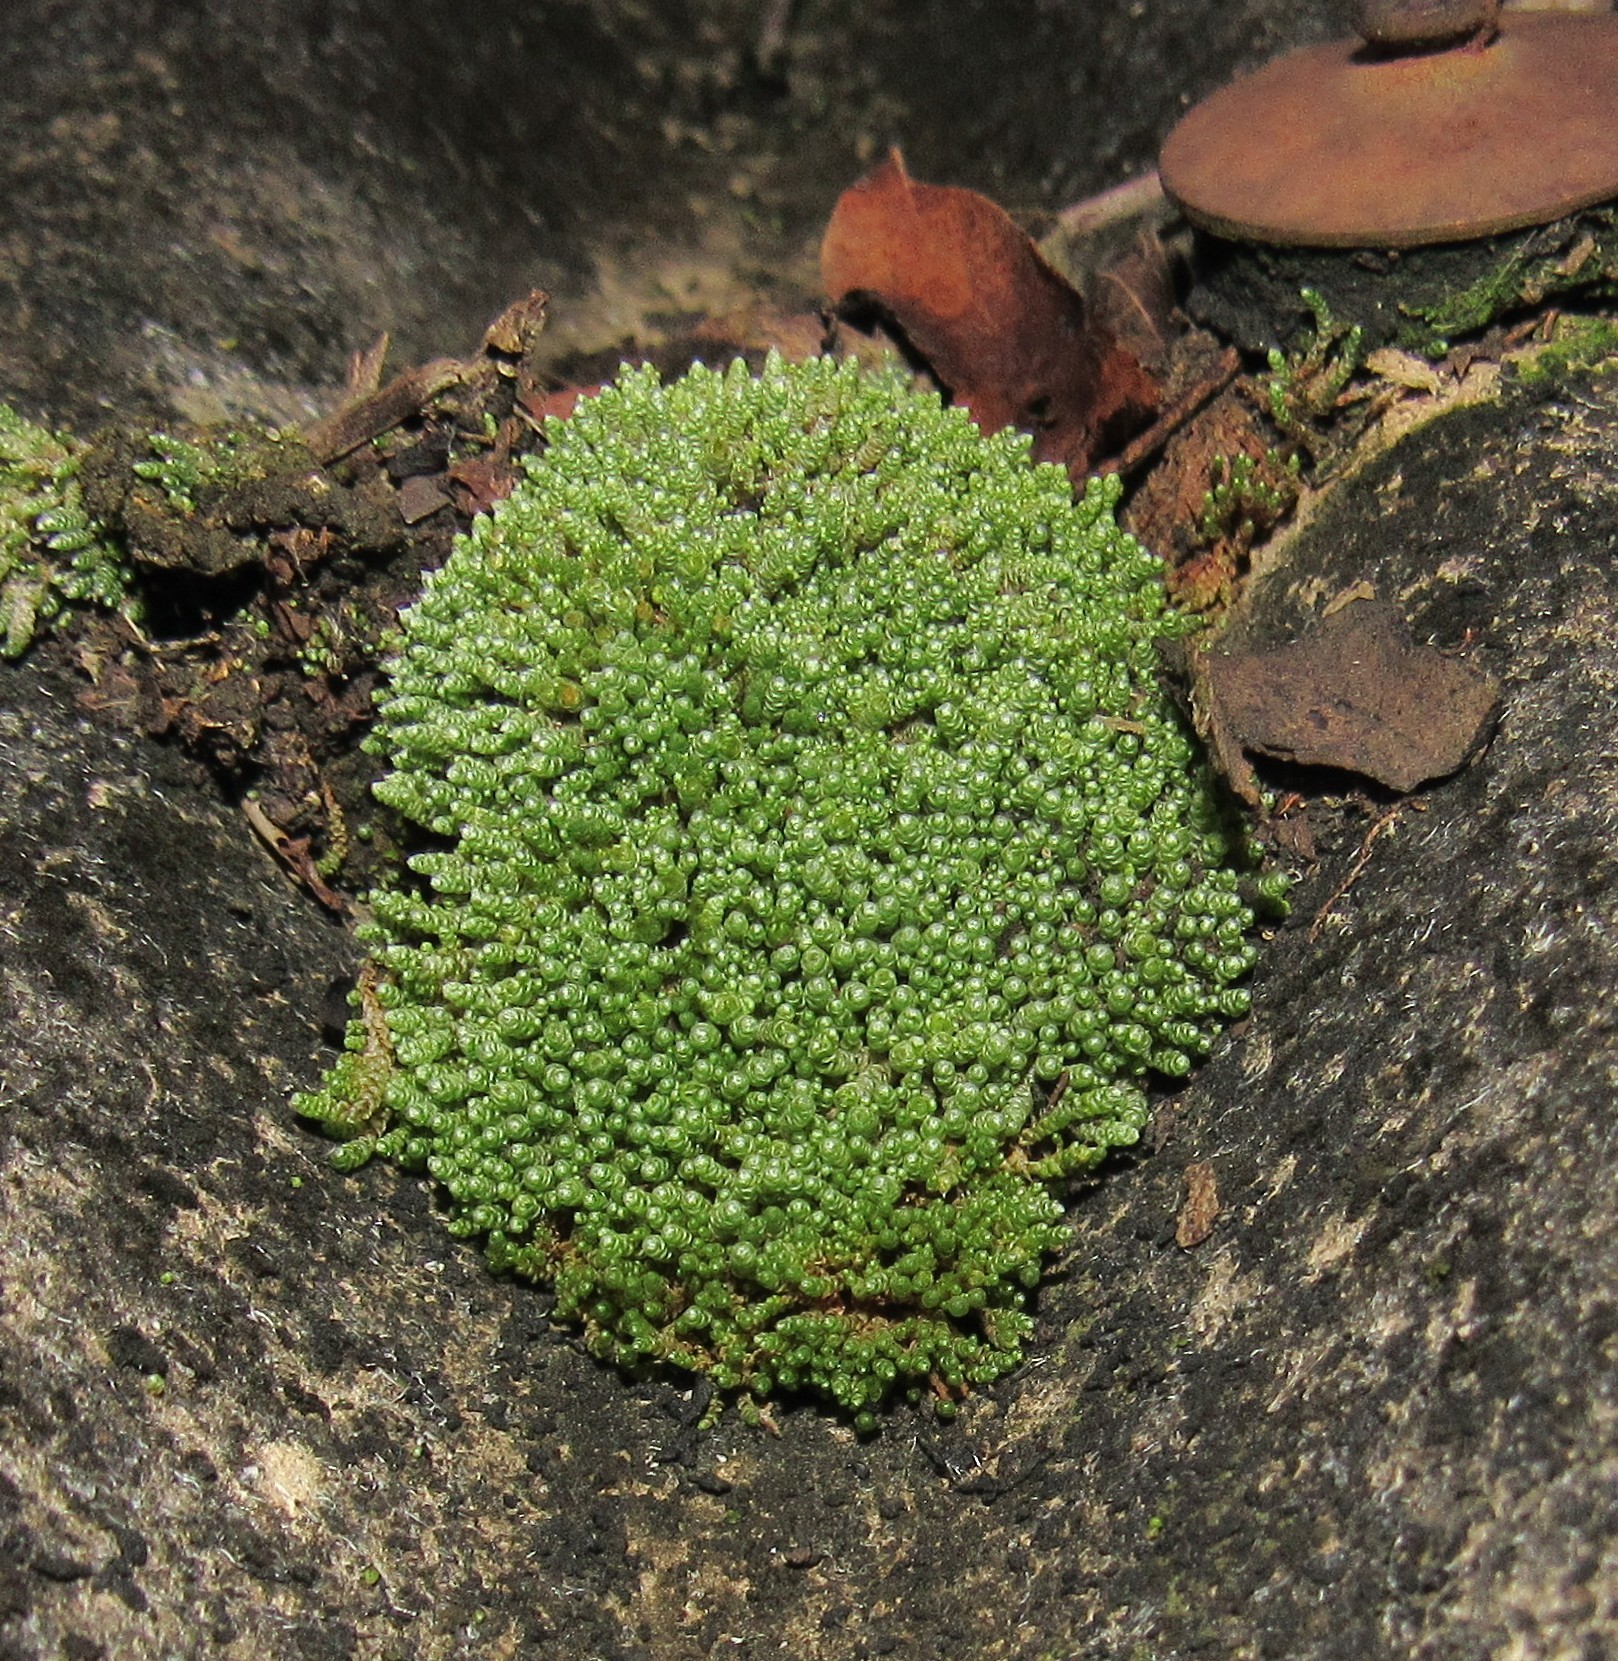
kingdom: Plantae
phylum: Bryophyta
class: Bryopsida
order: Bryales
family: Bryaceae
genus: Bryum
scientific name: Bryum argenteum
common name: Silver-moss
